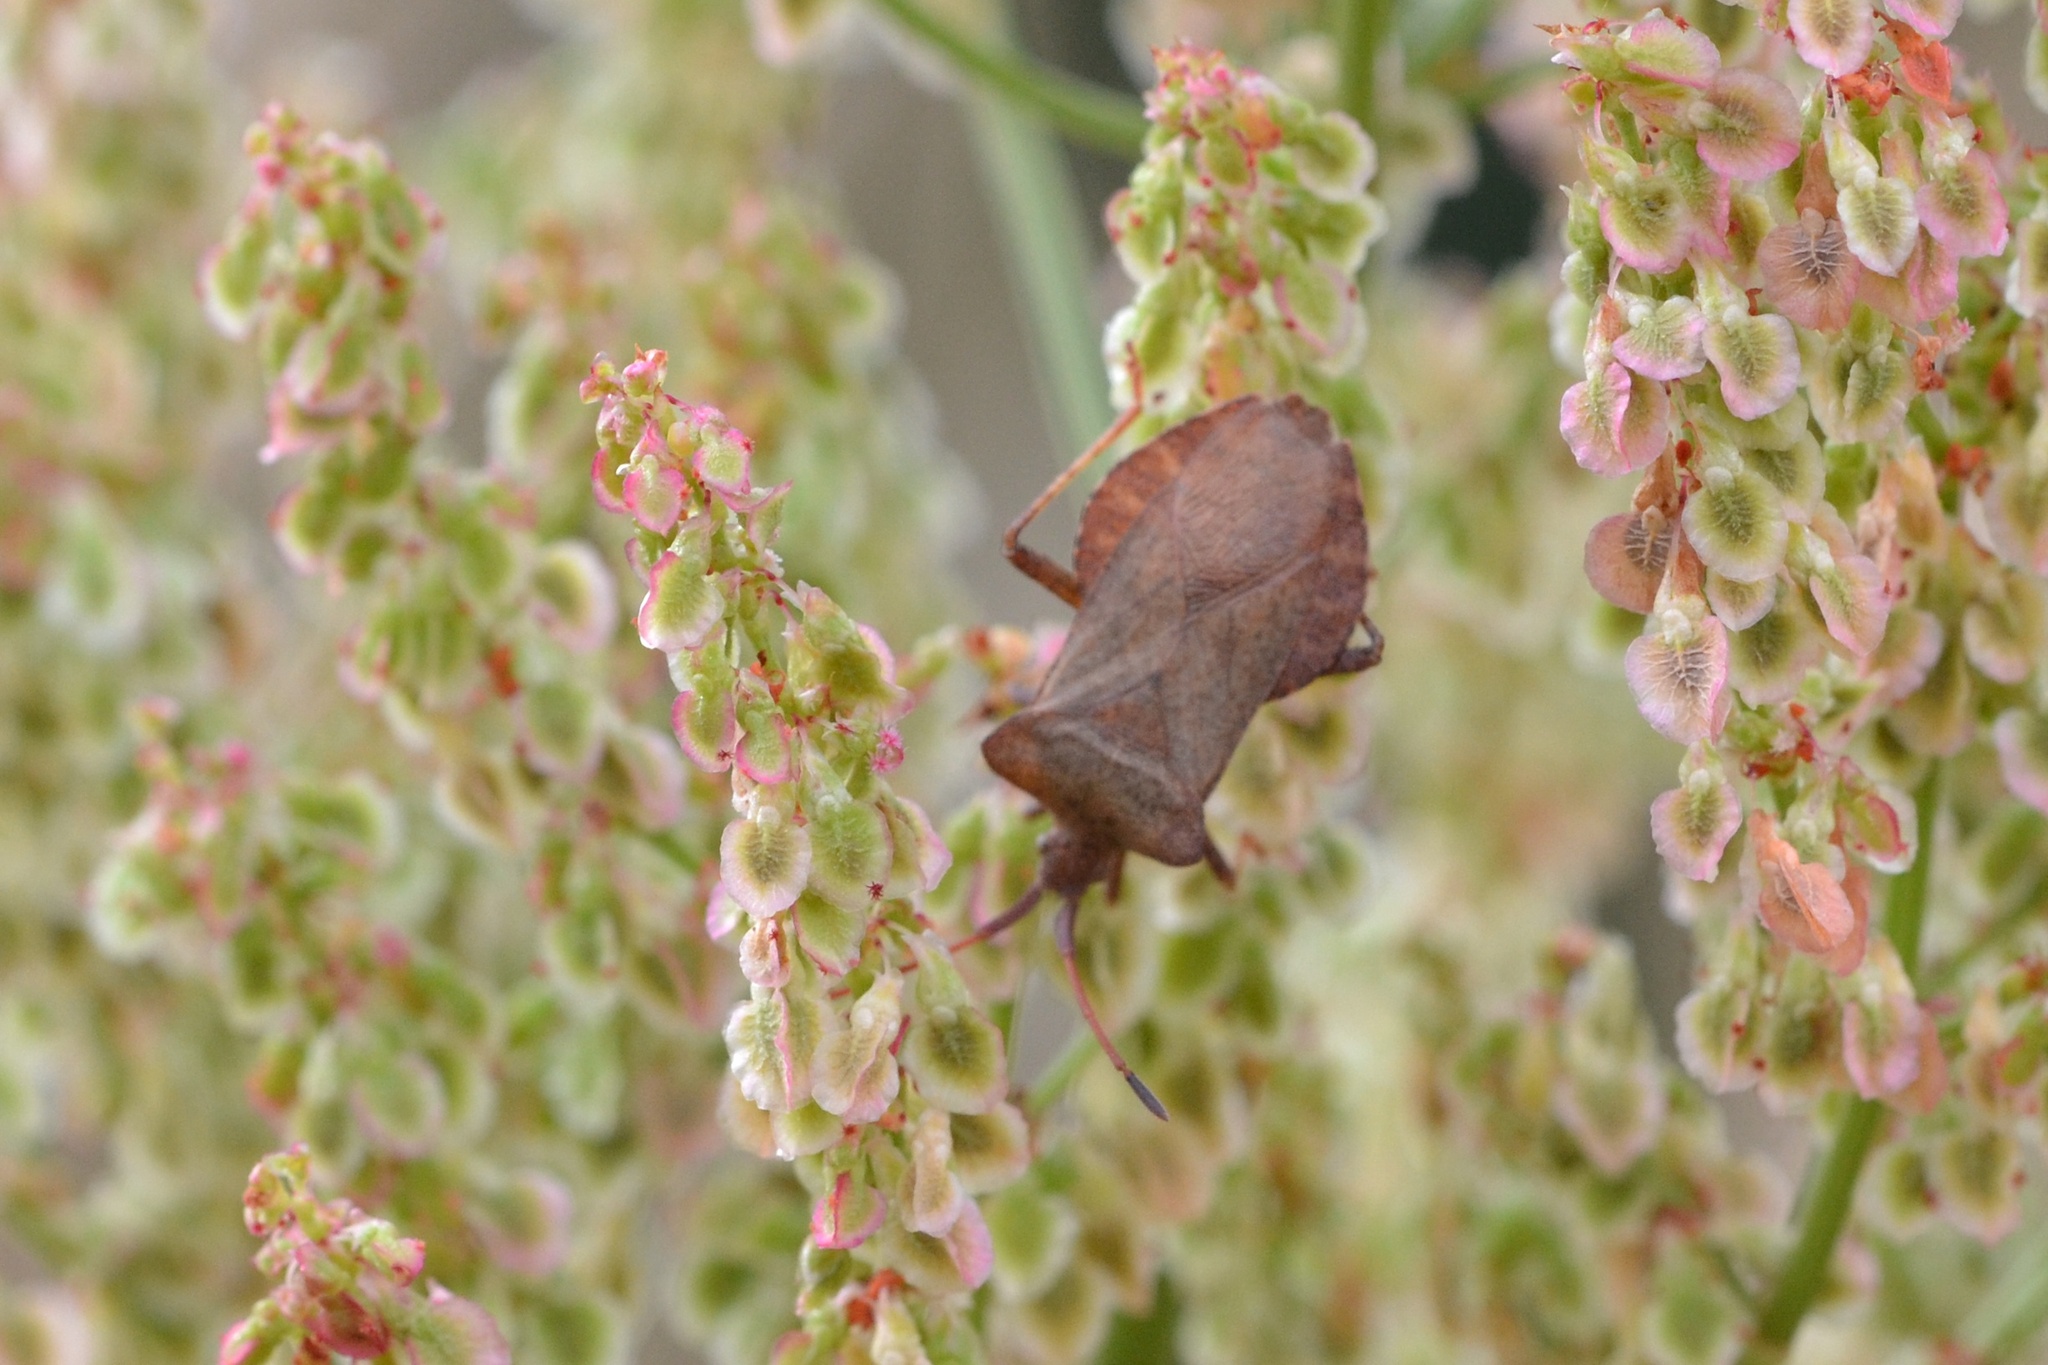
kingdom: Animalia
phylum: Arthropoda
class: Insecta
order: Hemiptera
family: Coreidae
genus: Coreus
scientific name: Coreus marginatus
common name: Dock bug
